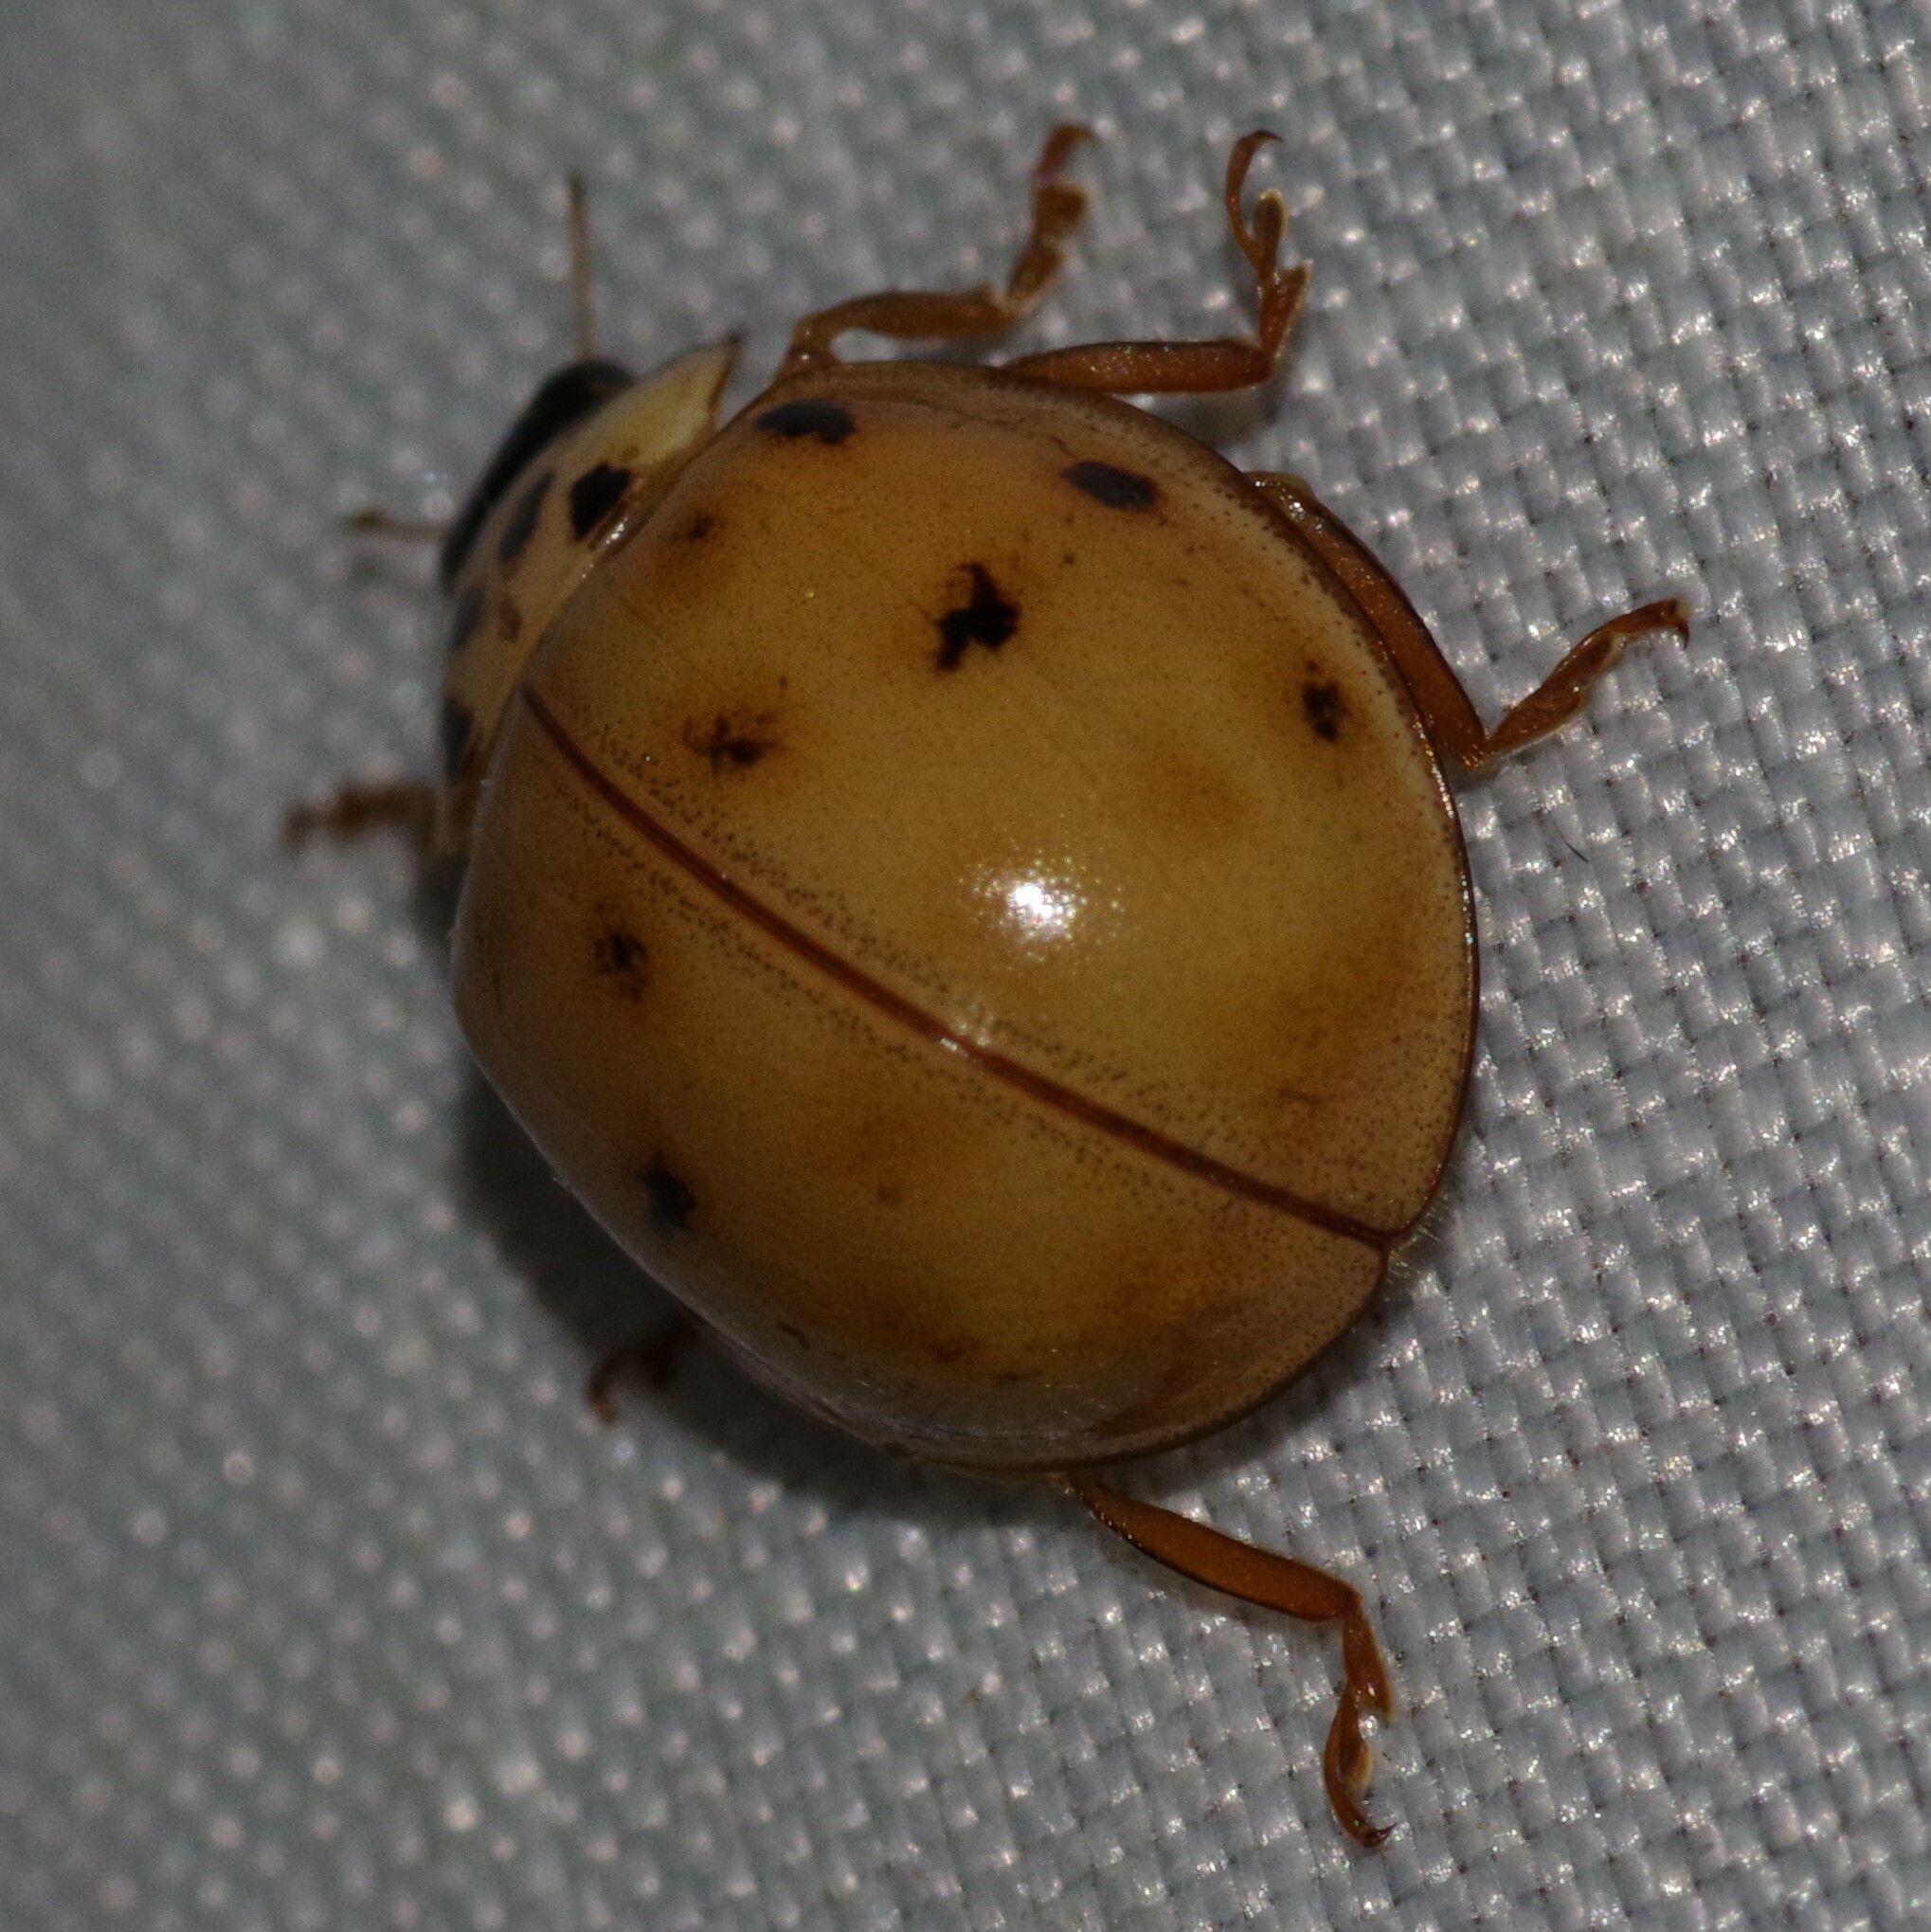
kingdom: Animalia
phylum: Arthropoda
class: Insecta
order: Coleoptera
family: Coccinellidae
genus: Harmonia
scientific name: Harmonia axyridis
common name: Harlequin ladybird
